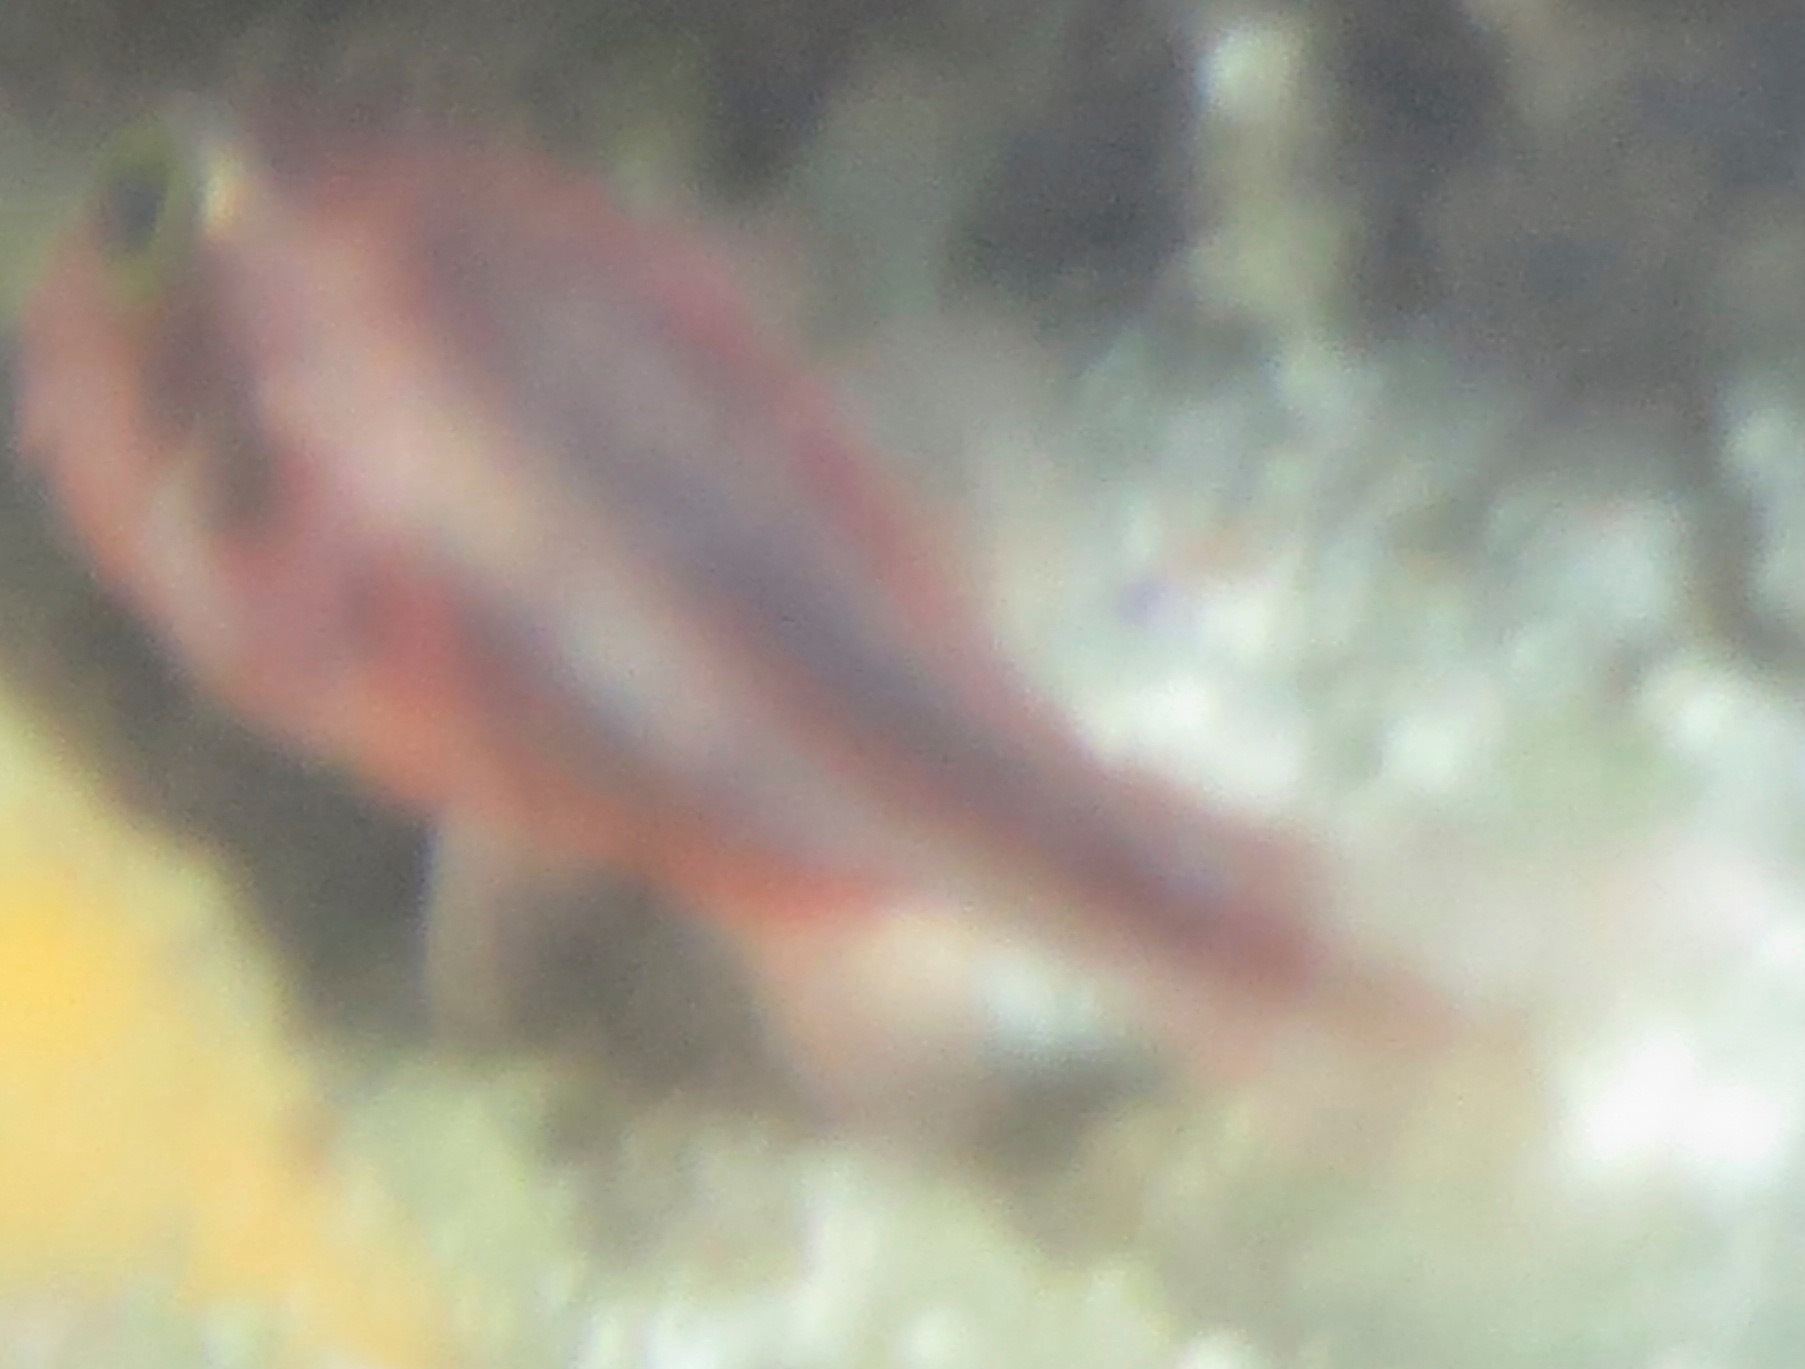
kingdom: Animalia
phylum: Chordata
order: Perciformes
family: Apogonidae
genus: Apogon
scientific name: Apogon semiornatus
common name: Threeband cardinalfish
